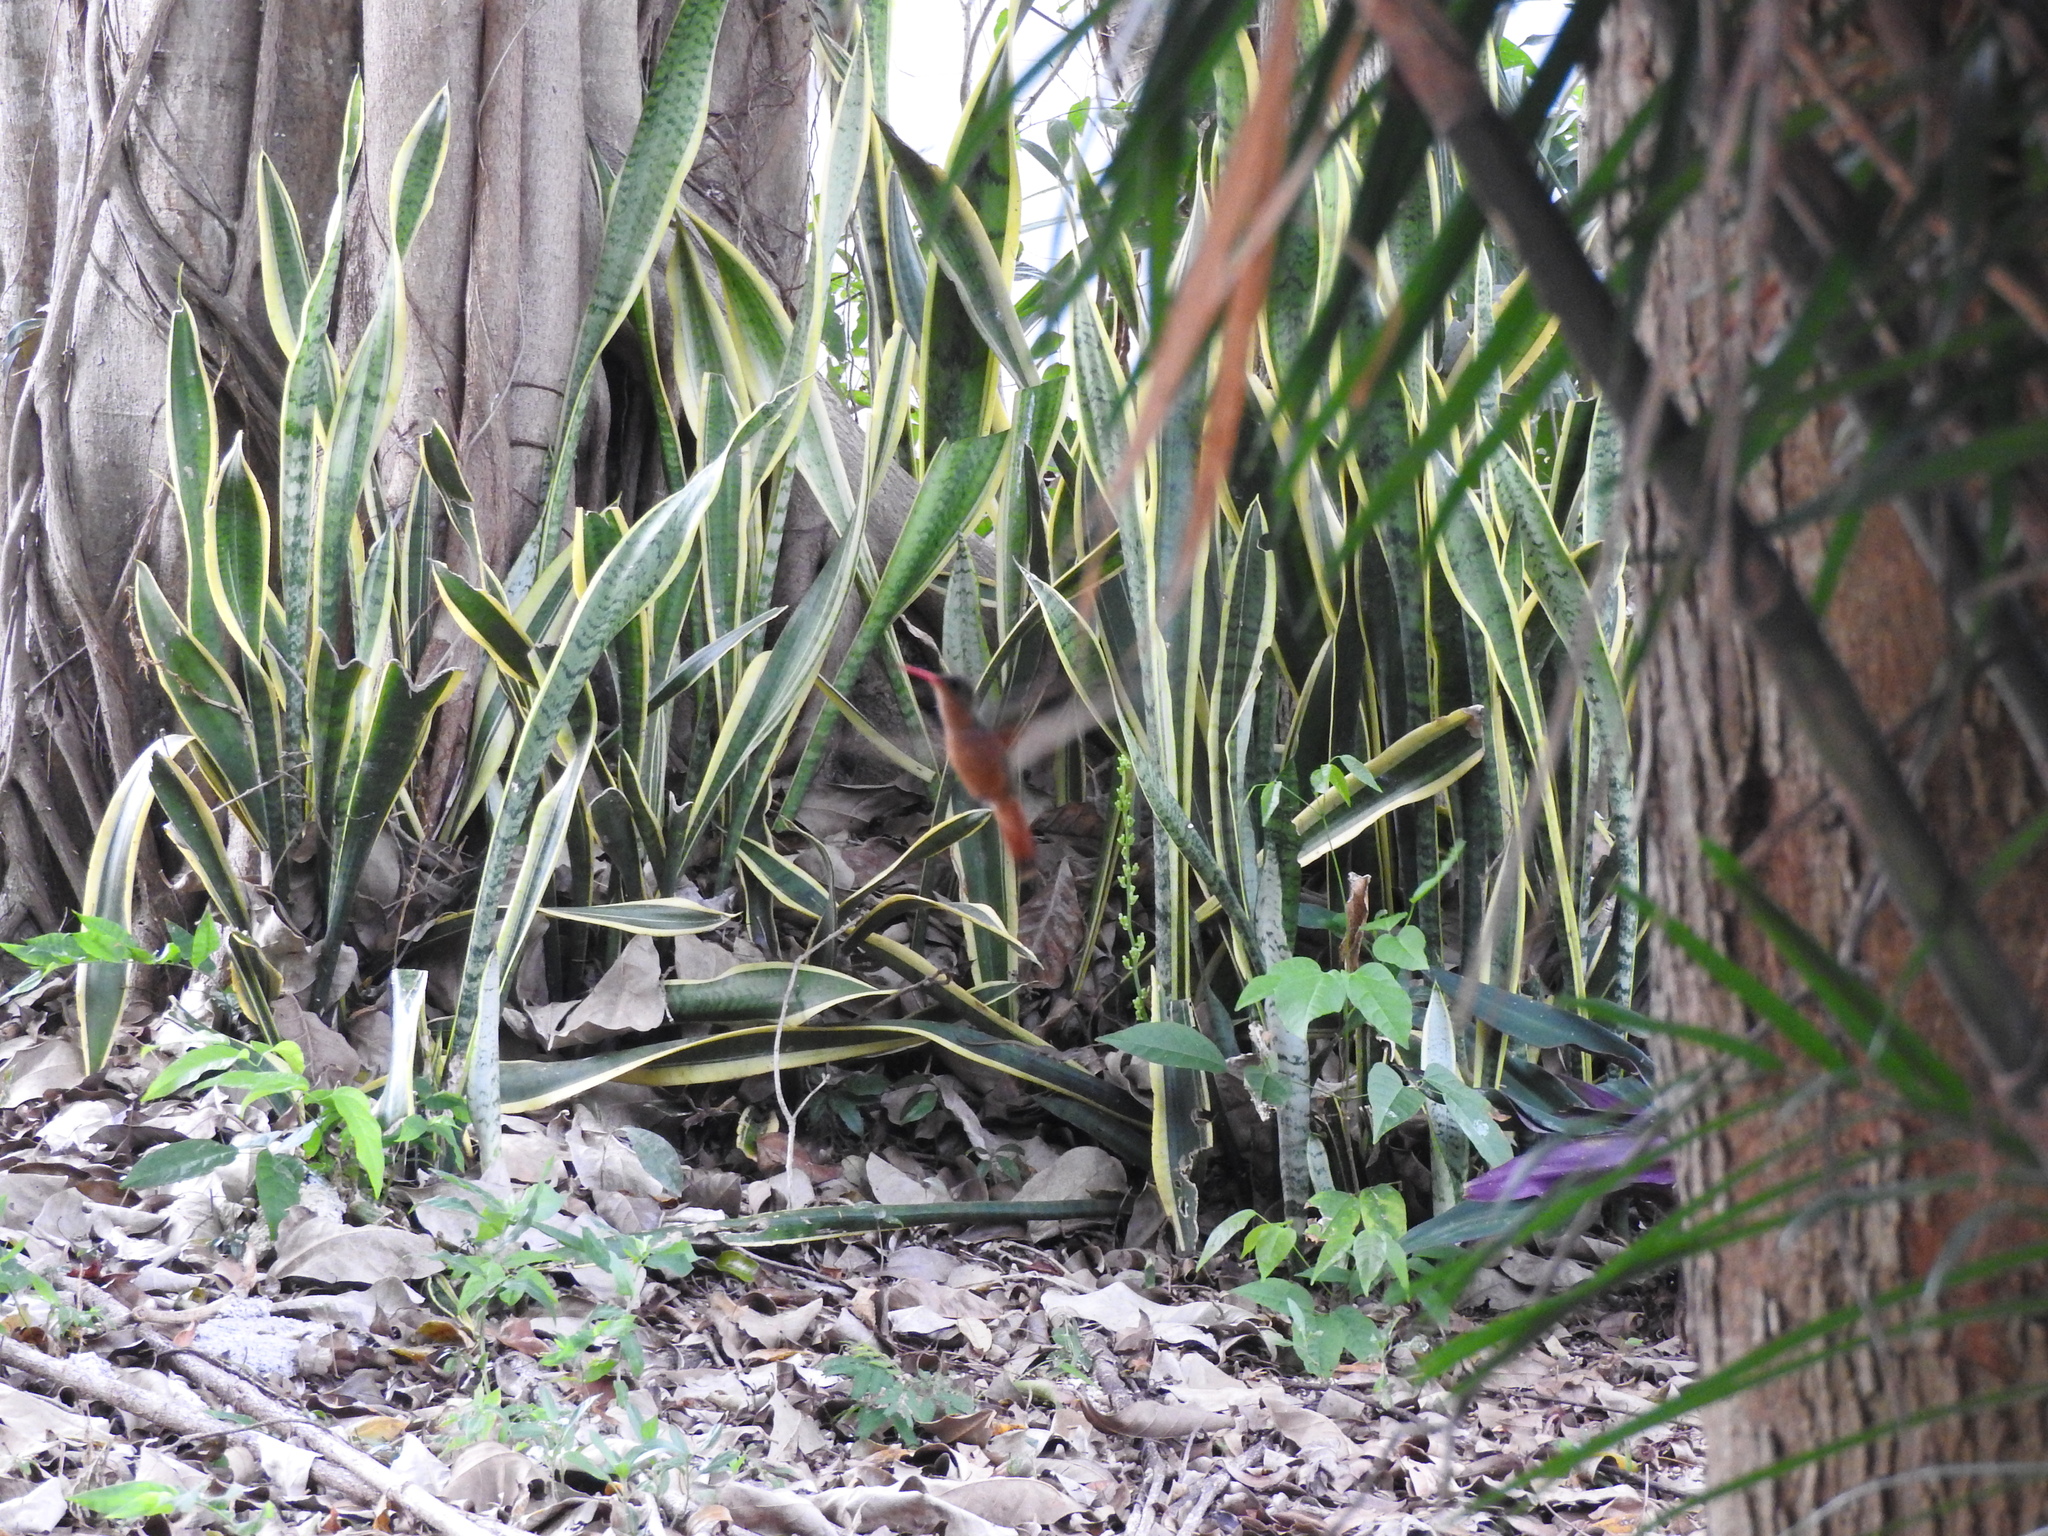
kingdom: Animalia
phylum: Chordata
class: Aves
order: Apodiformes
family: Trochilidae
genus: Amazilia
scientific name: Amazilia rutila
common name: Cinnamon hummingbird
